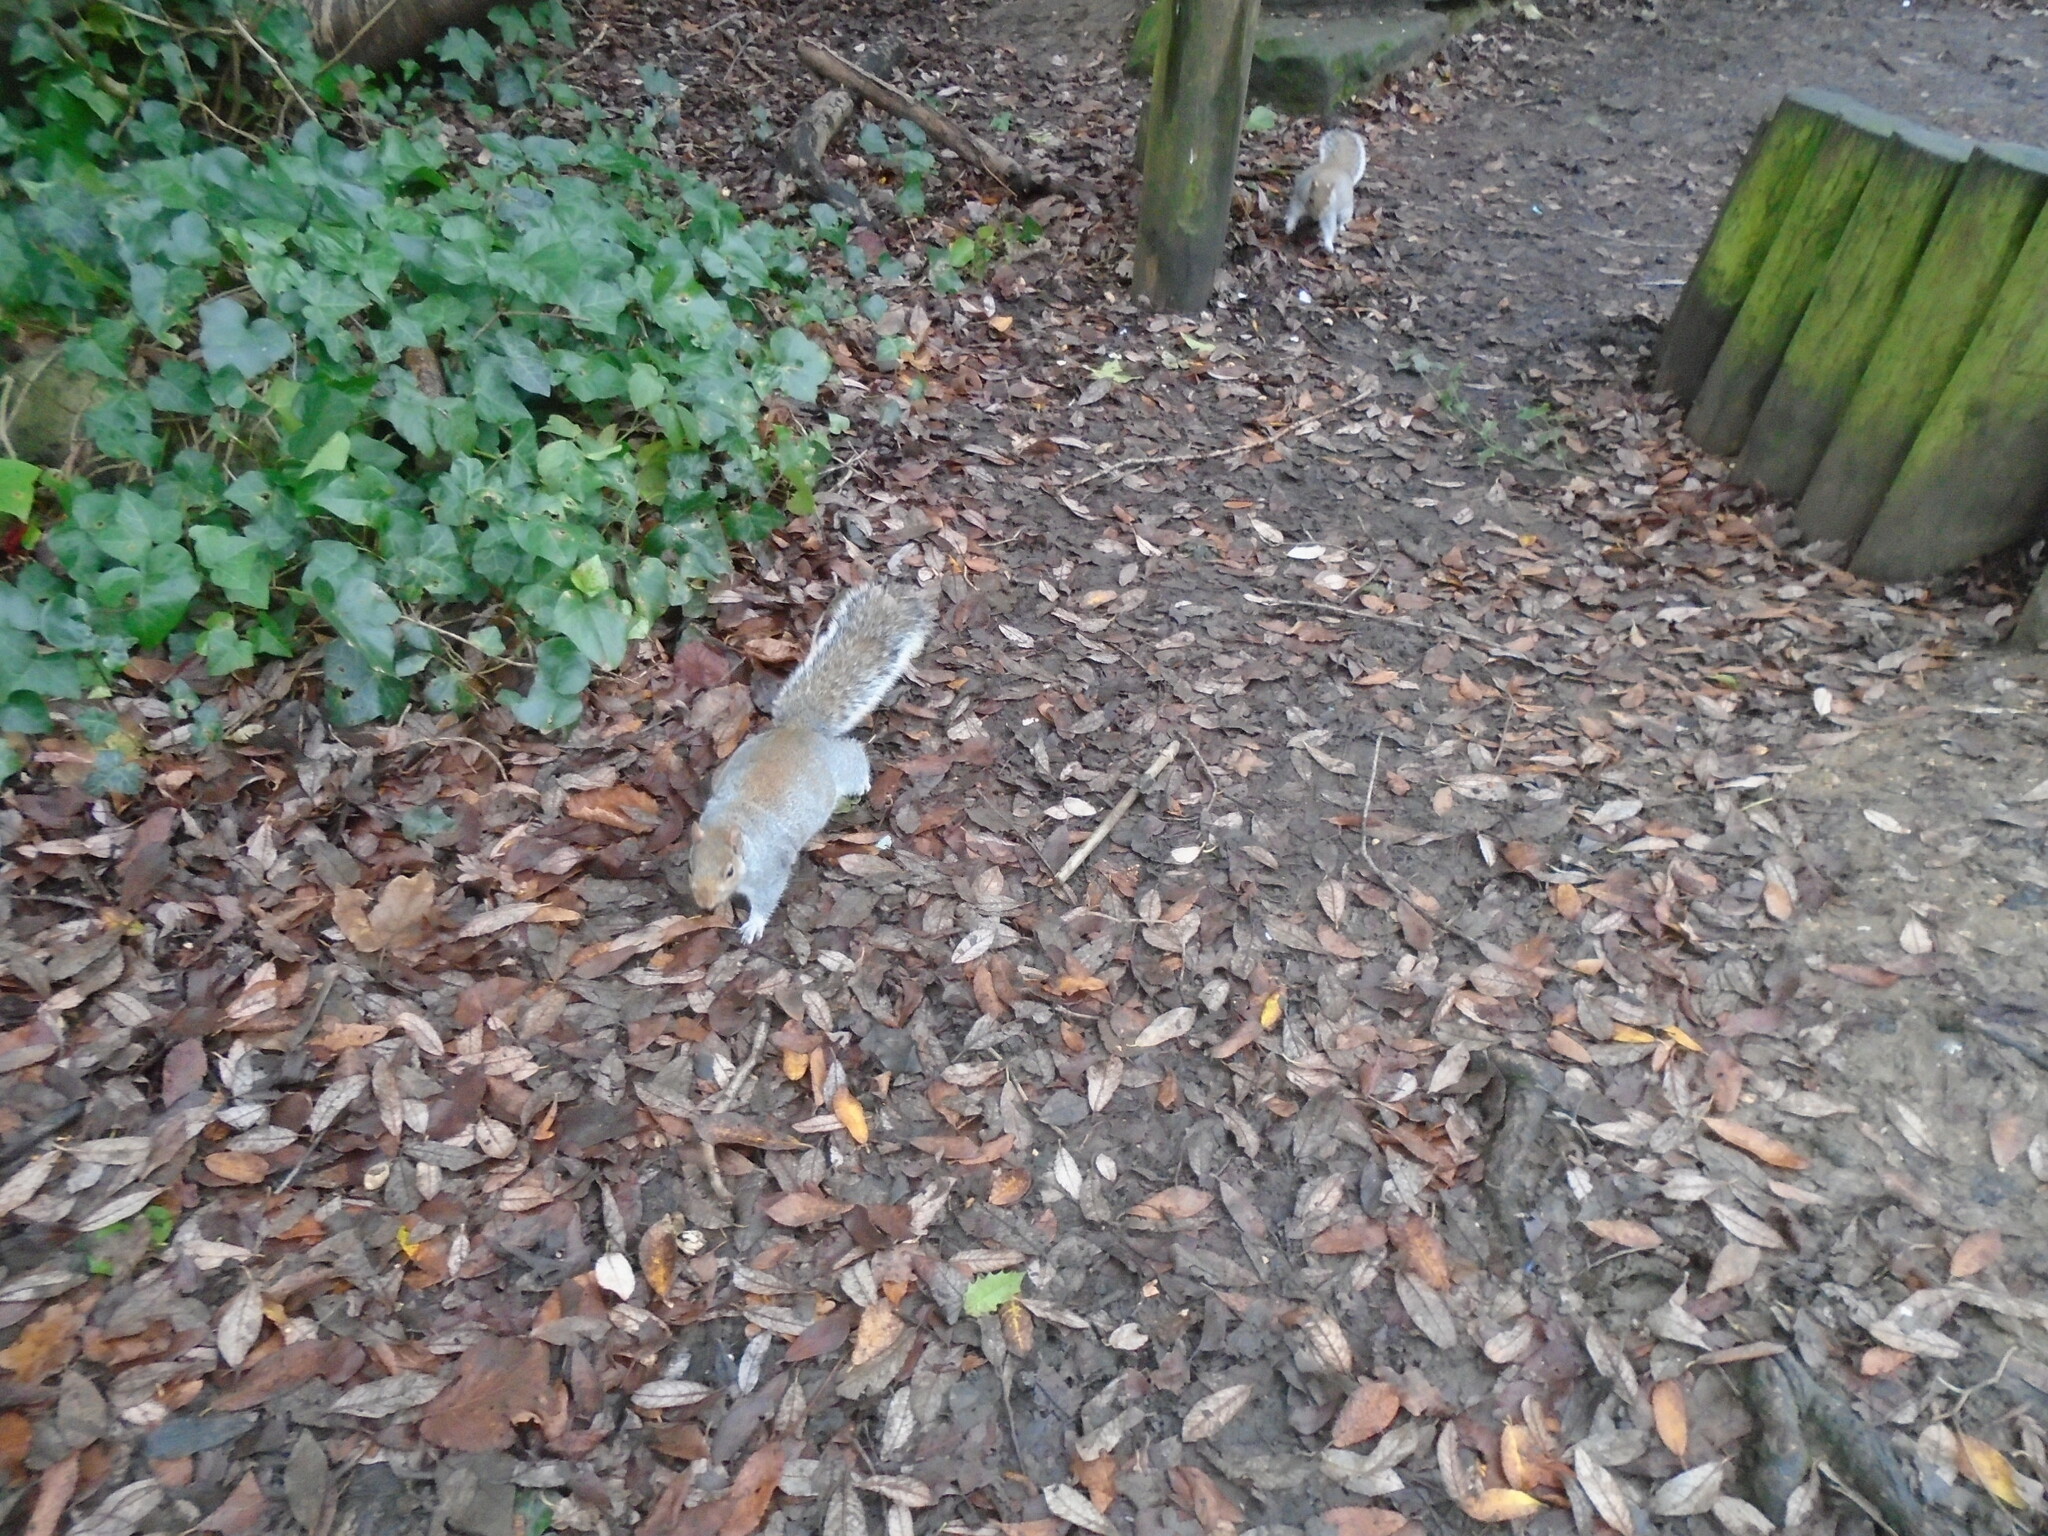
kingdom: Animalia
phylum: Chordata
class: Mammalia
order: Rodentia
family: Sciuridae
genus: Sciurus
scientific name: Sciurus carolinensis
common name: Eastern gray squirrel
